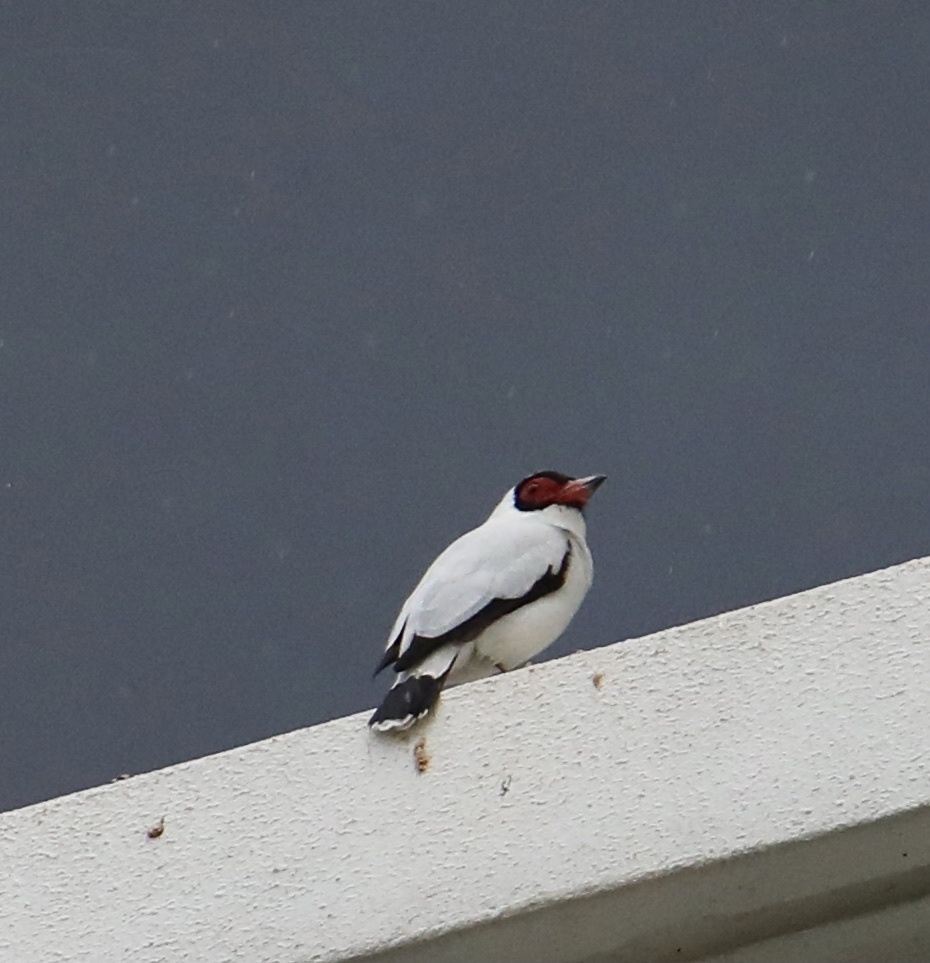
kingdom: Animalia
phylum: Chordata
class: Aves
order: Passeriformes
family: Cotingidae
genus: Tityra
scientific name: Tityra semifasciata
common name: Masked tityra
